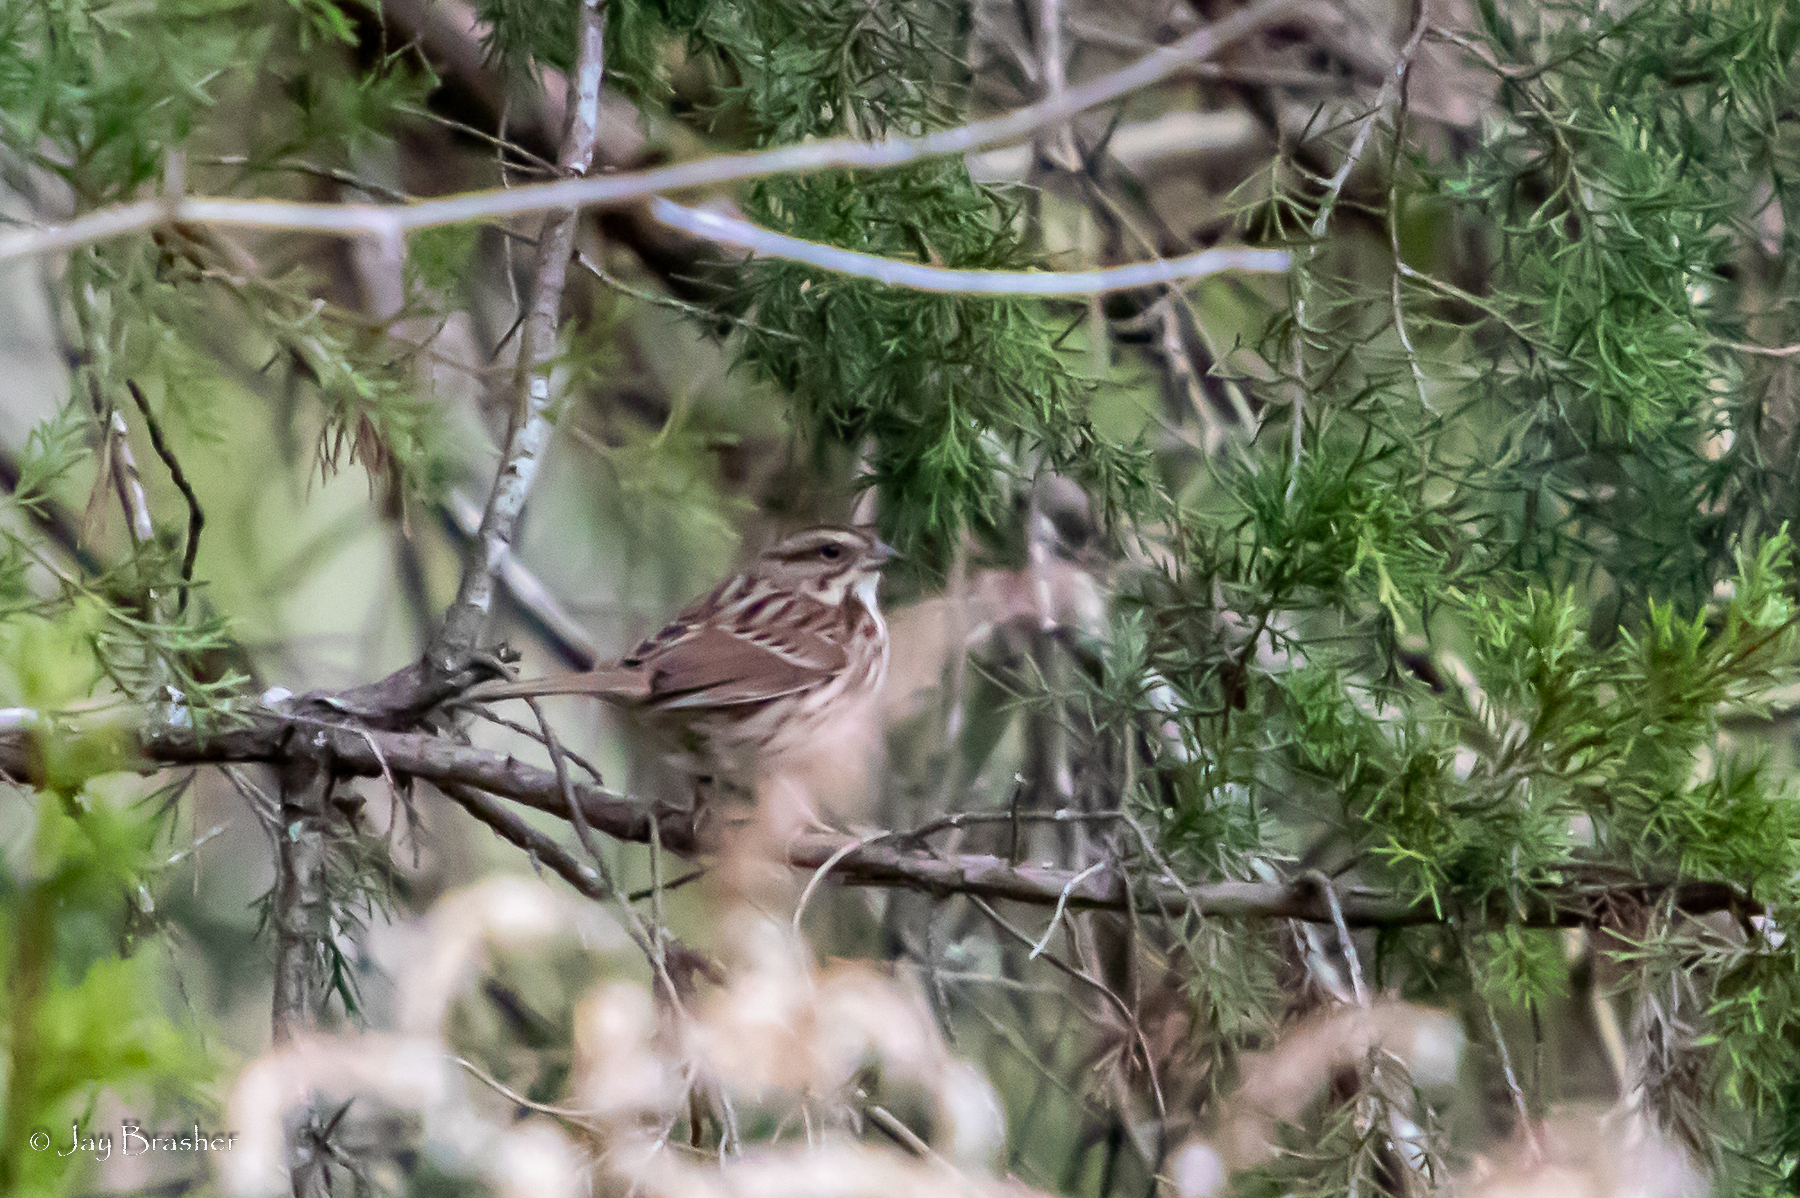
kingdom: Animalia
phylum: Chordata
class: Aves
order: Passeriformes
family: Passerellidae
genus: Melospiza
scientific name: Melospiza melodia
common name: Song sparrow
